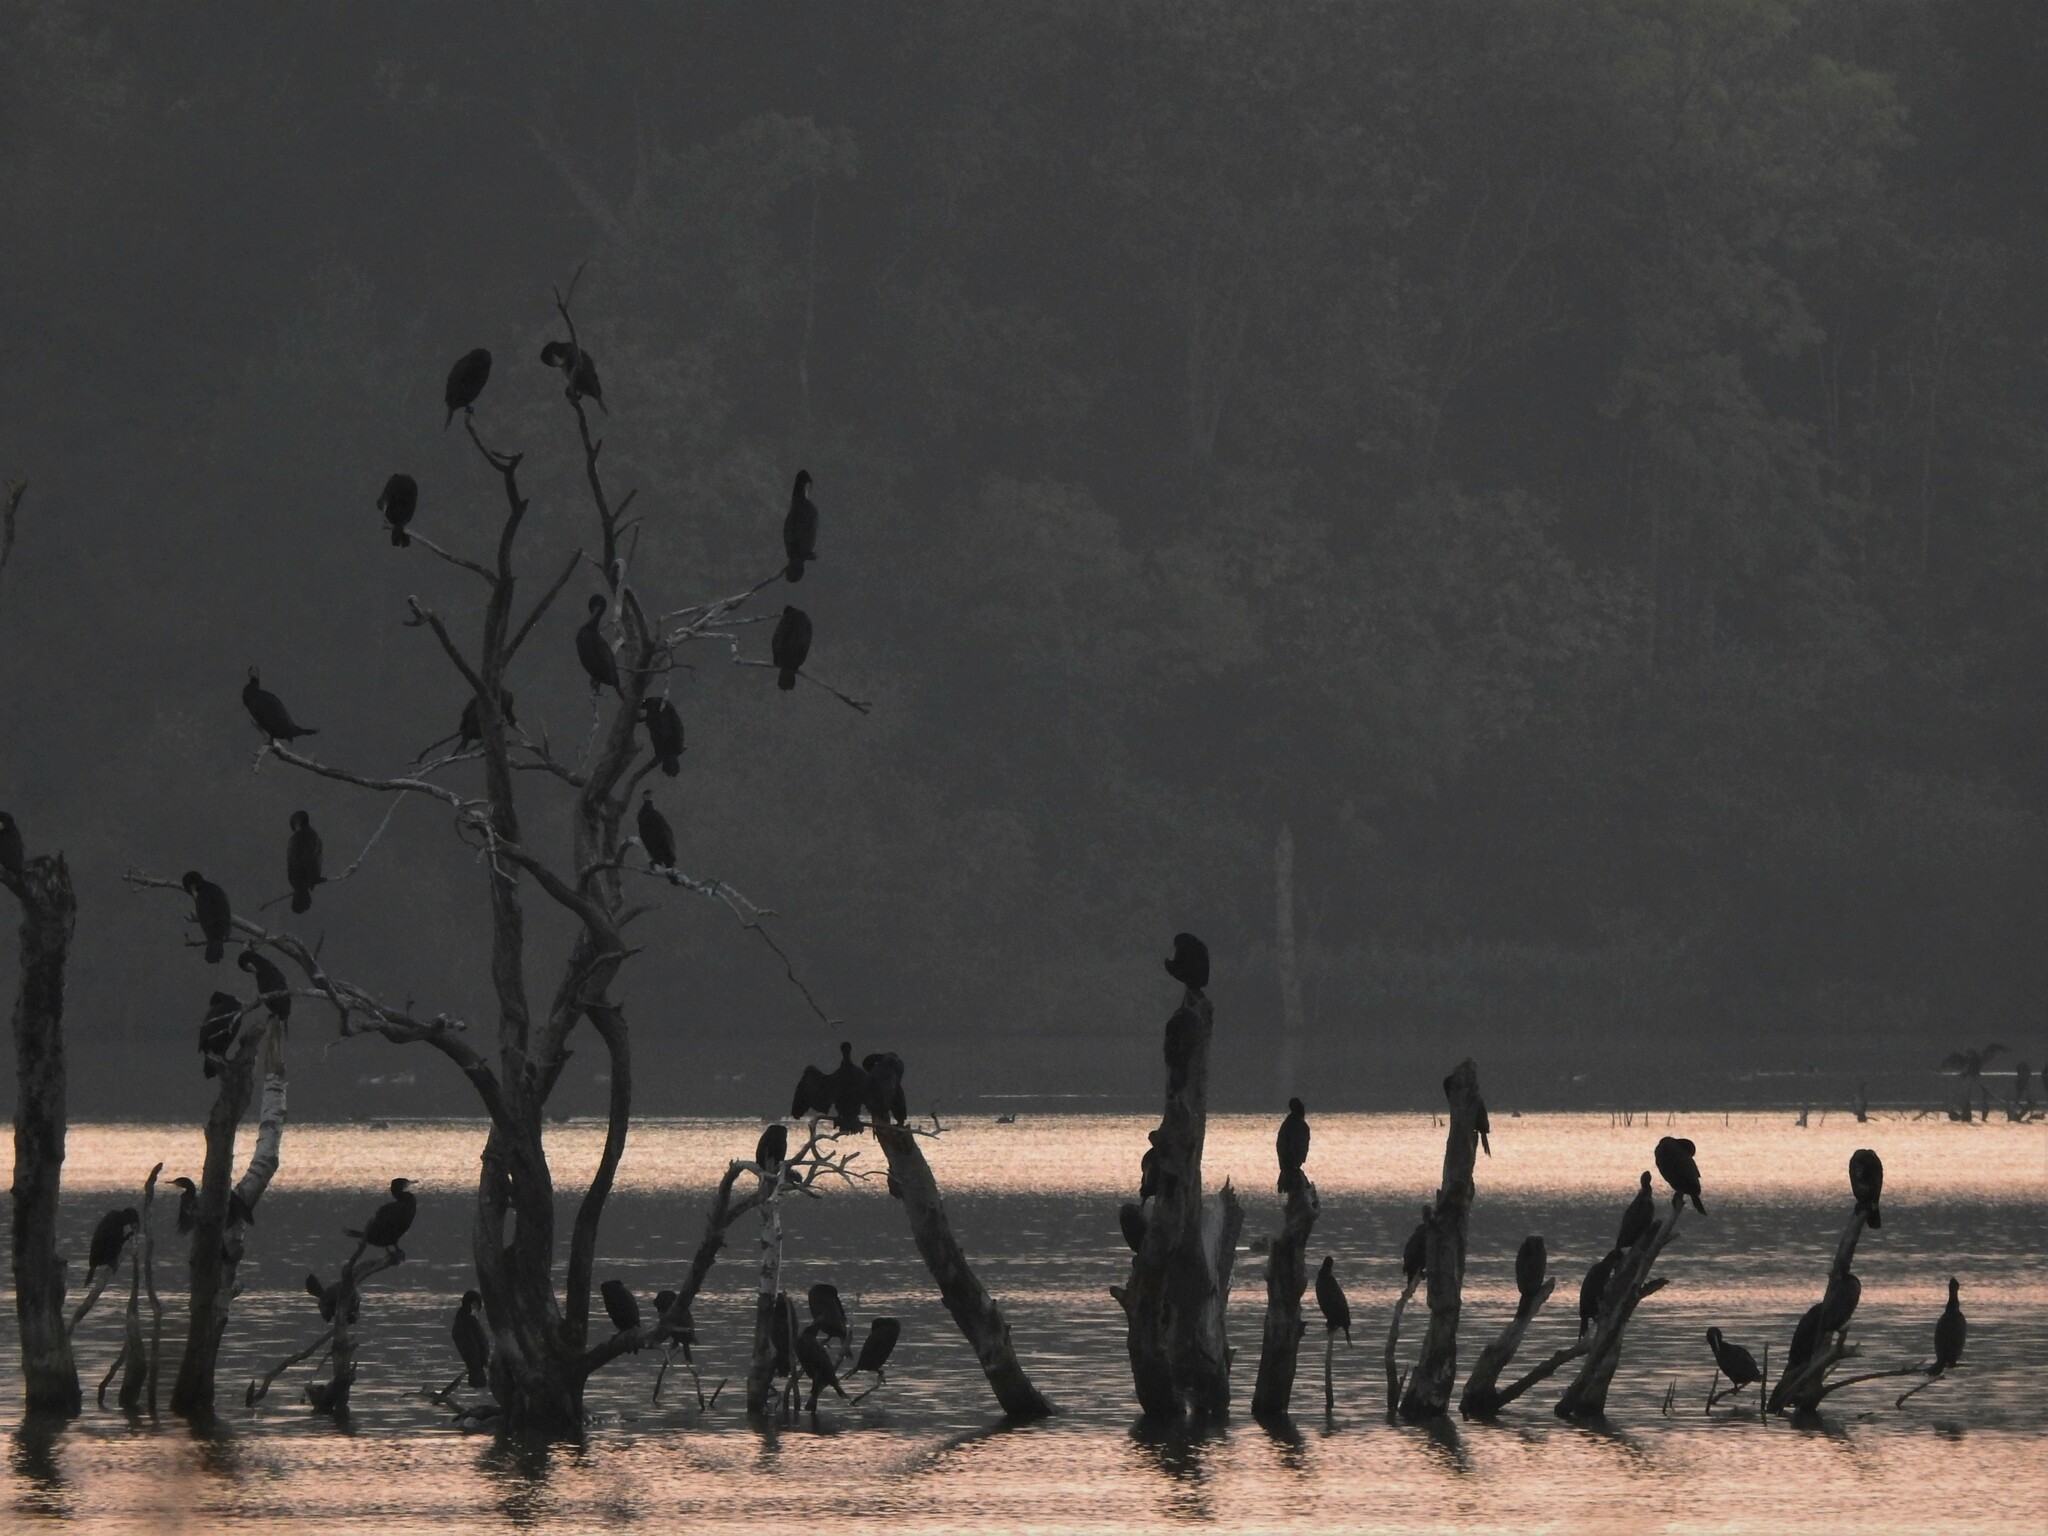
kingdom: Animalia
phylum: Chordata
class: Aves
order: Suliformes
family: Phalacrocoracidae
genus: Phalacrocorax
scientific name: Phalacrocorax carbo
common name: Great cormorant
